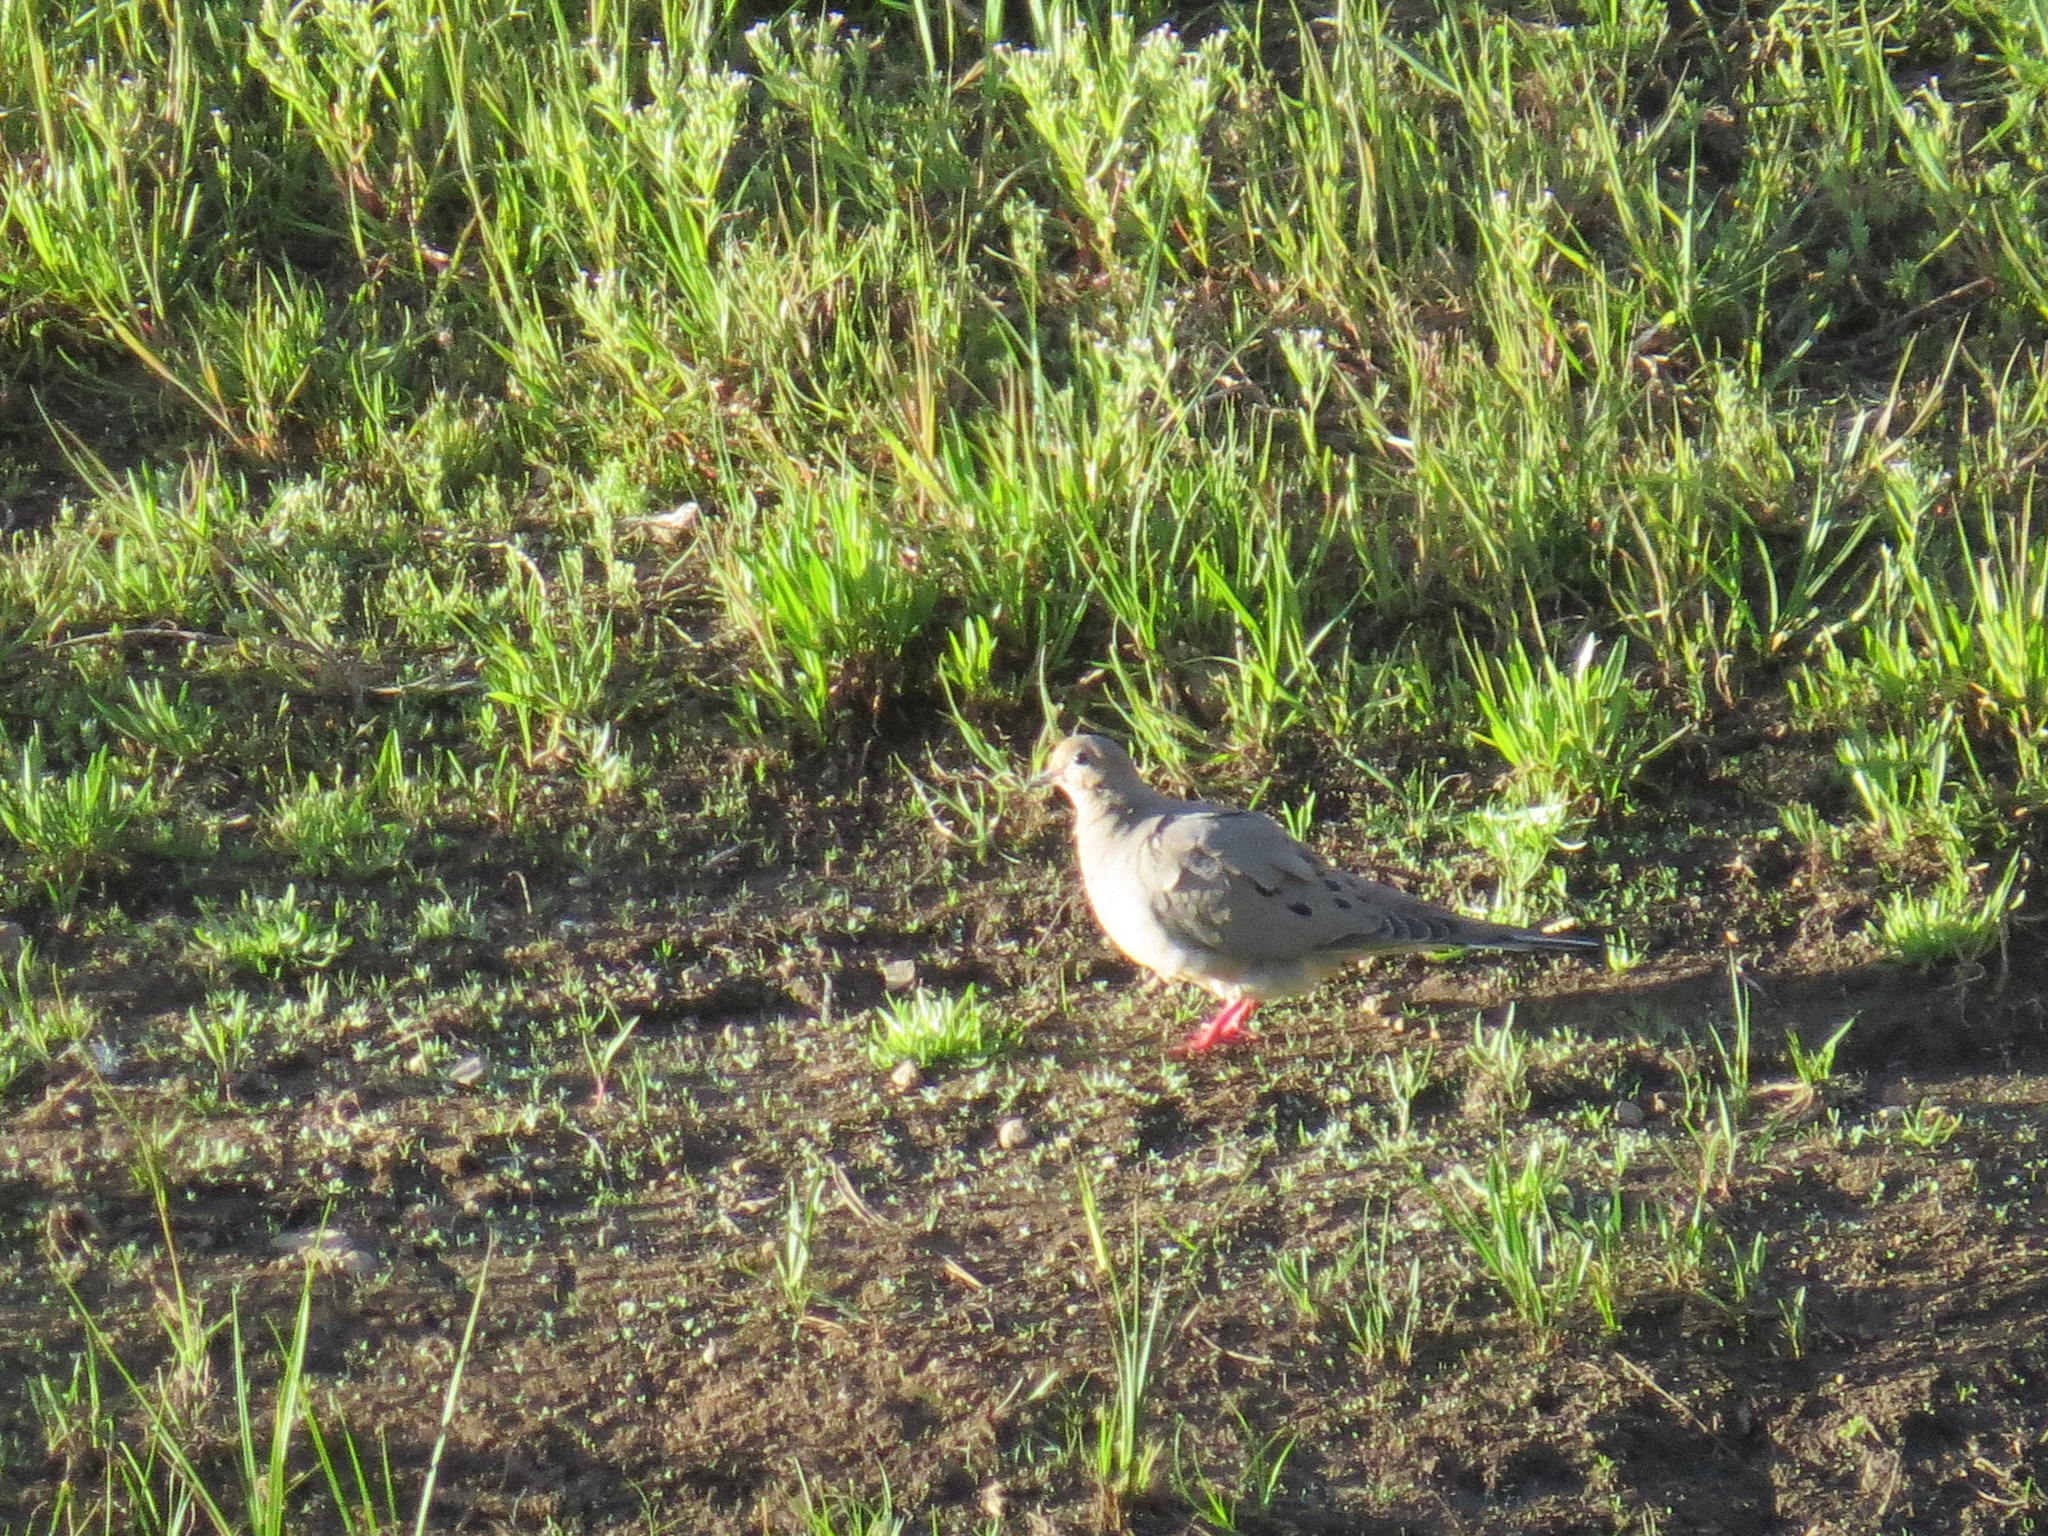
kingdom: Animalia
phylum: Chordata
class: Aves
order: Columbiformes
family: Columbidae
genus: Zenaida
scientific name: Zenaida macroura
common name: Mourning dove
